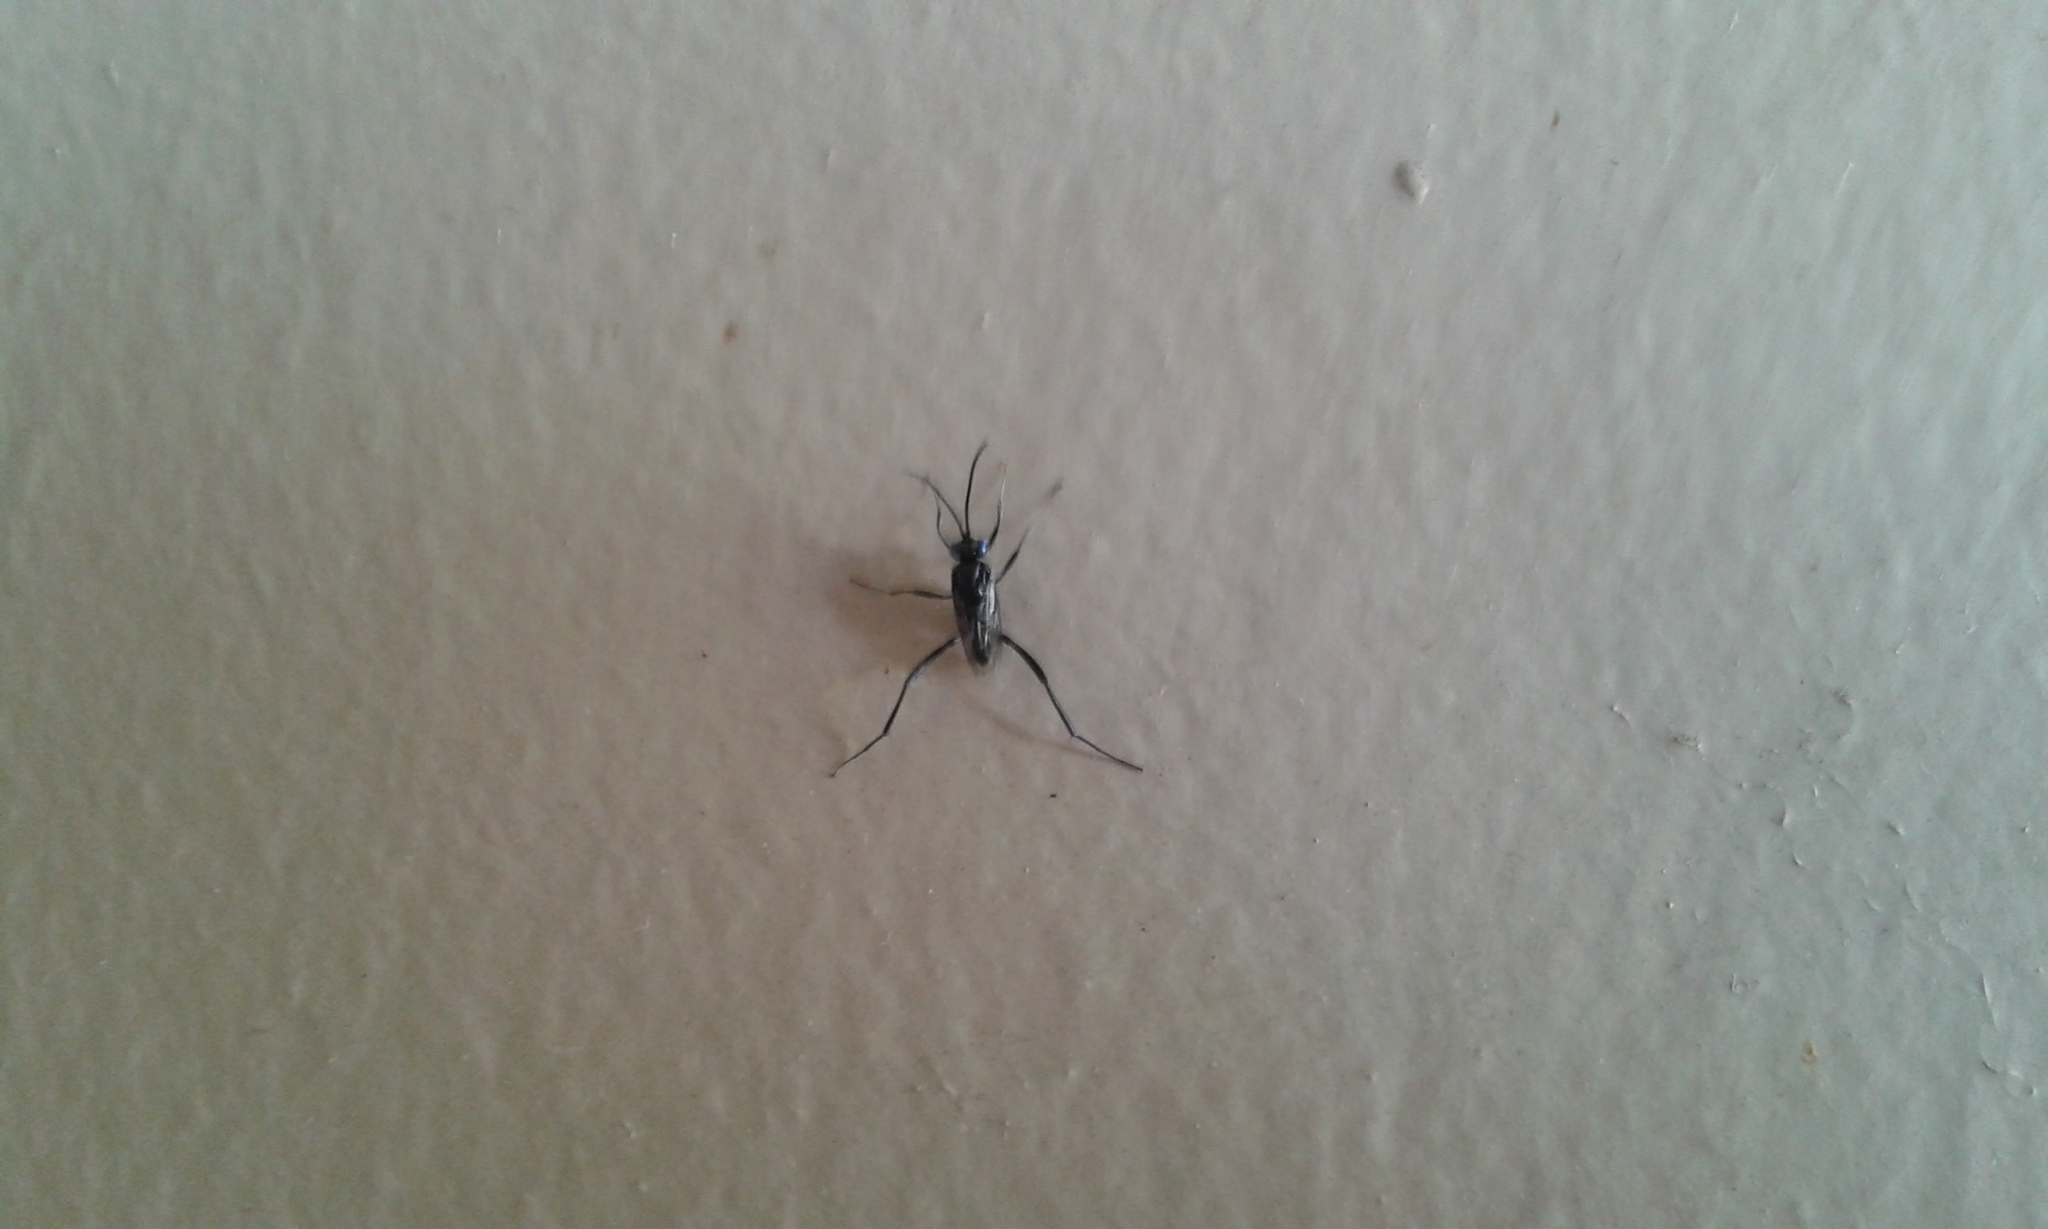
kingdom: Animalia
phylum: Arthropoda
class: Insecta
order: Hymenoptera
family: Evaniidae
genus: Evania
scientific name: Evania appendigaster
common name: Ensign wasp
